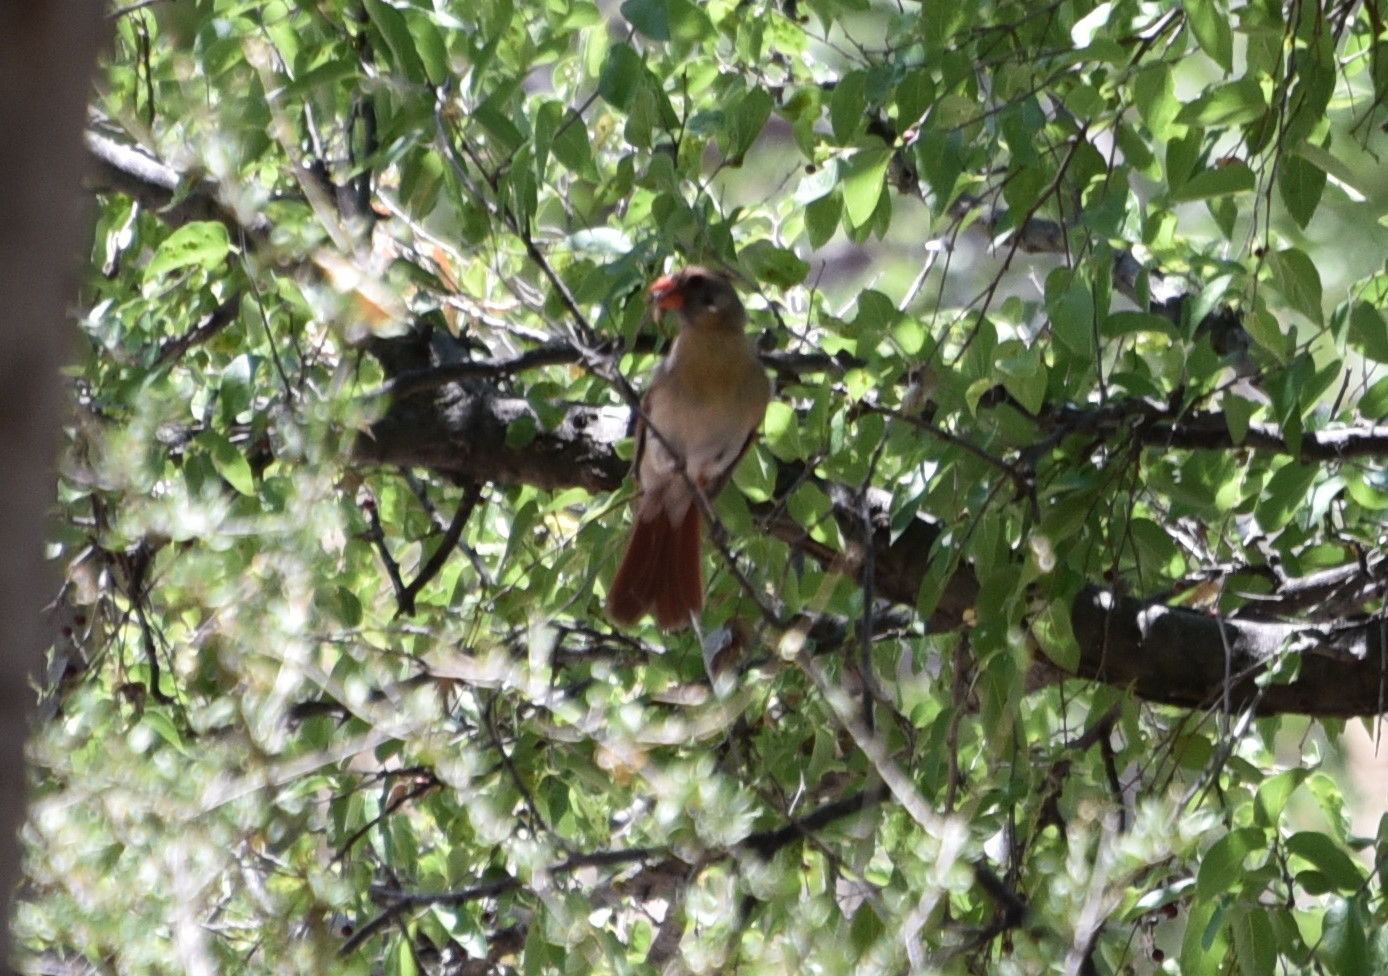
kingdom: Animalia
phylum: Chordata
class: Aves
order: Passeriformes
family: Cardinalidae
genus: Cardinalis
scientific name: Cardinalis cardinalis
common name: Northern cardinal
